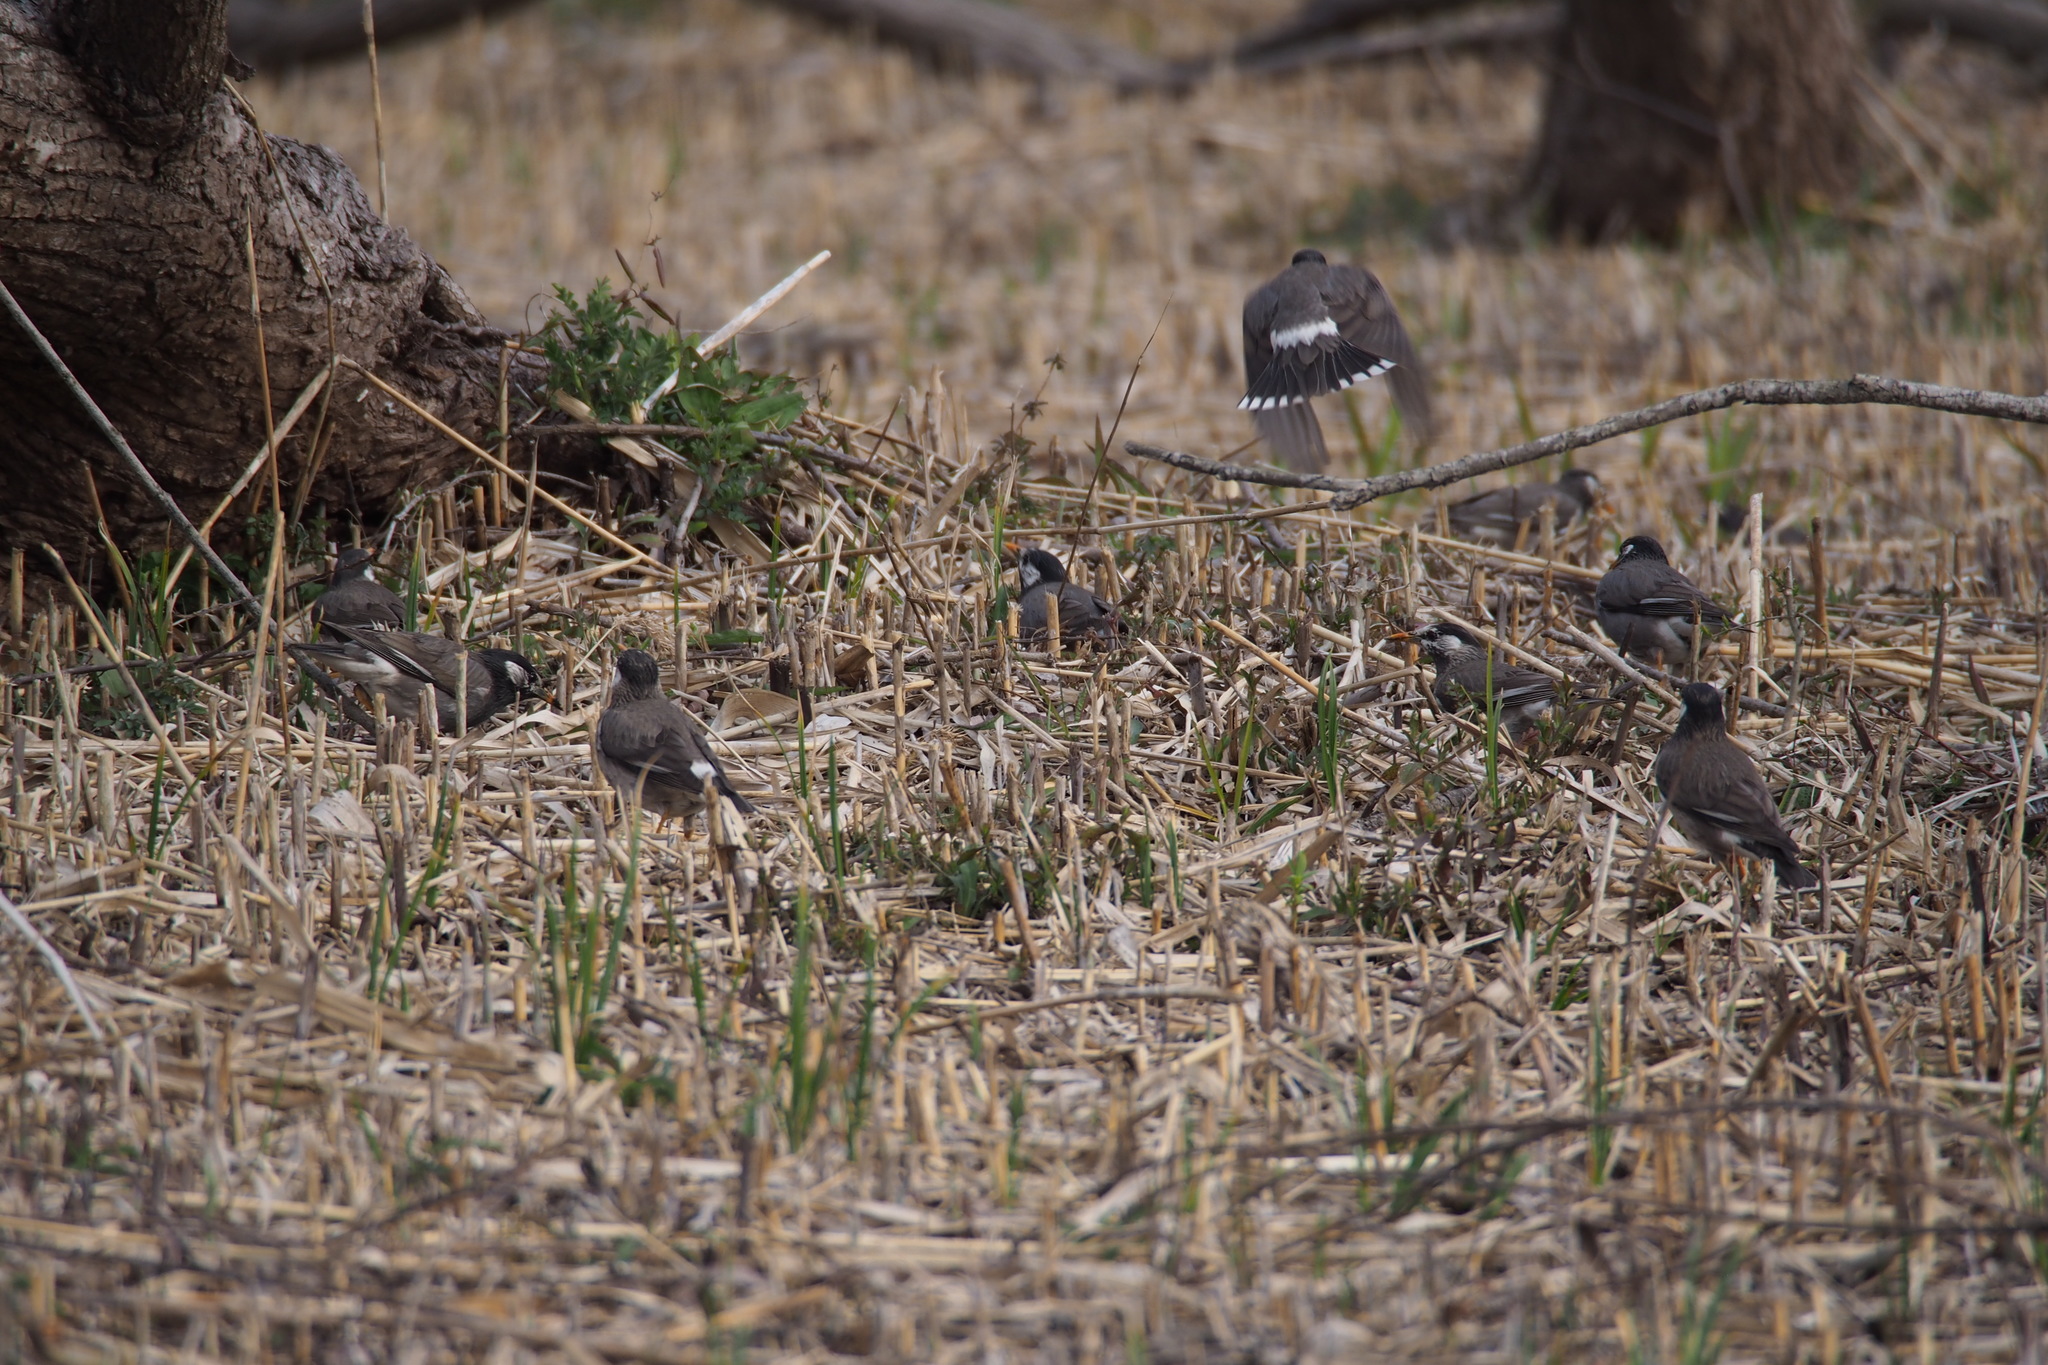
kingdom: Animalia
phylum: Chordata
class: Aves
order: Passeriformes
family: Sturnidae
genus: Spodiopsar
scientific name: Spodiopsar cineraceus
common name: White-cheeked starling
